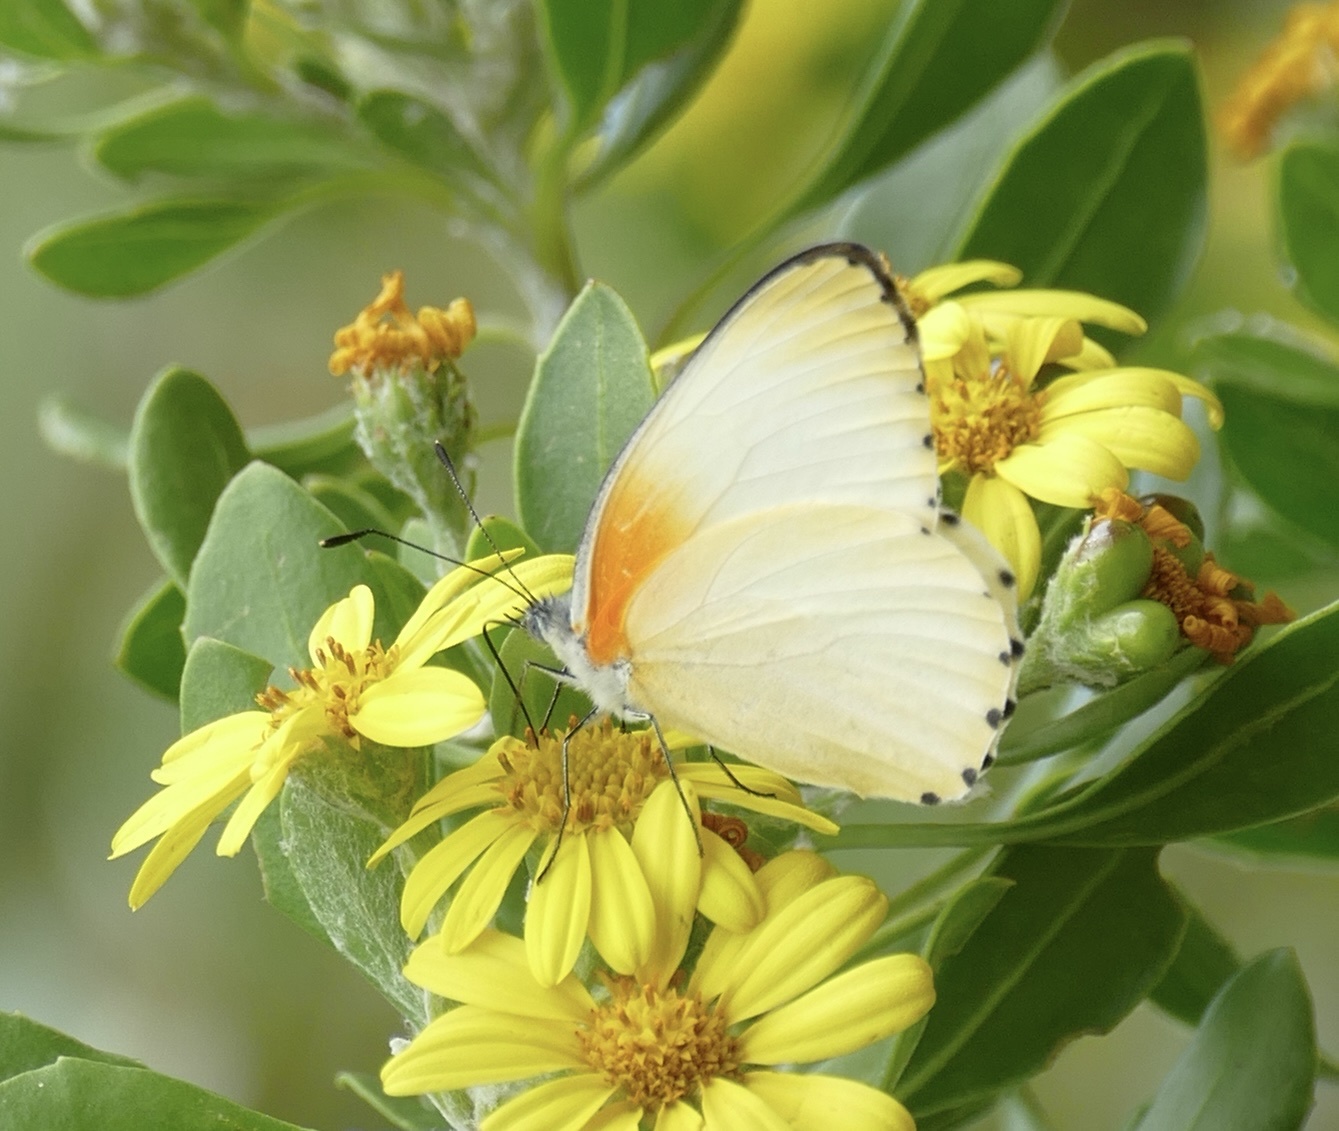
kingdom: Animalia
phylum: Arthropoda
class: Insecta
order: Lepidoptera
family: Pieridae
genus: Mylothris
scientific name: Mylothris agathina
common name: Eastern dotted border
